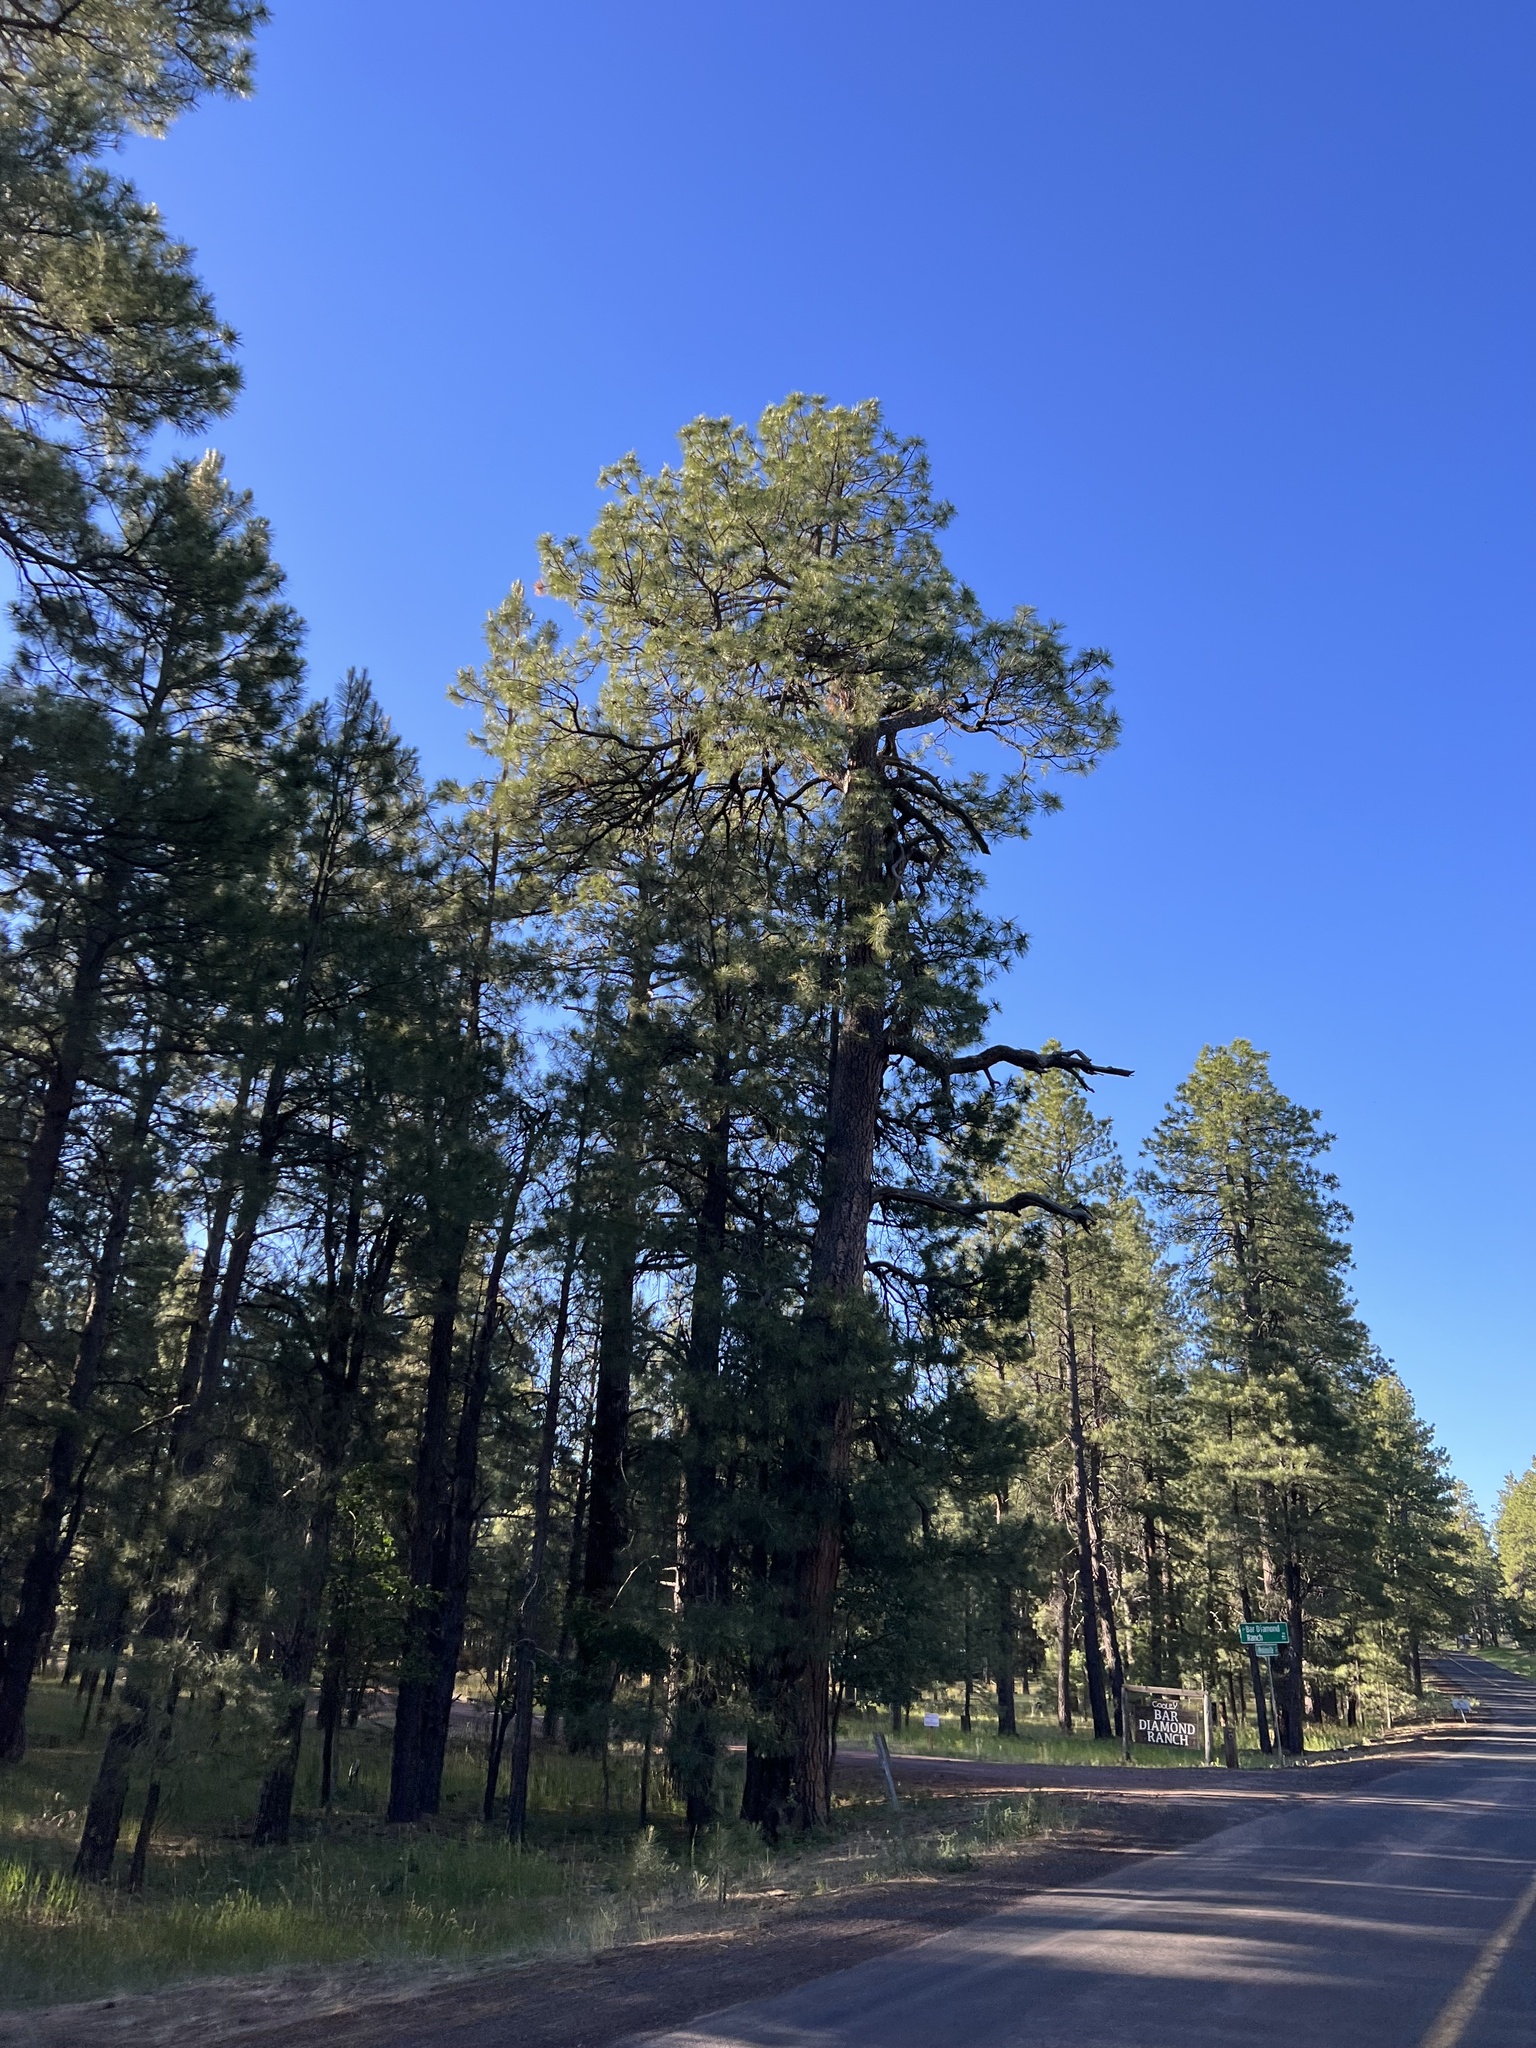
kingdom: Plantae
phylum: Tracheophyta
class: Pinopsida
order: Pinales
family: Pinaceae
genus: Pinus
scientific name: Pinus ponderosa
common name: Western yellow-pine
